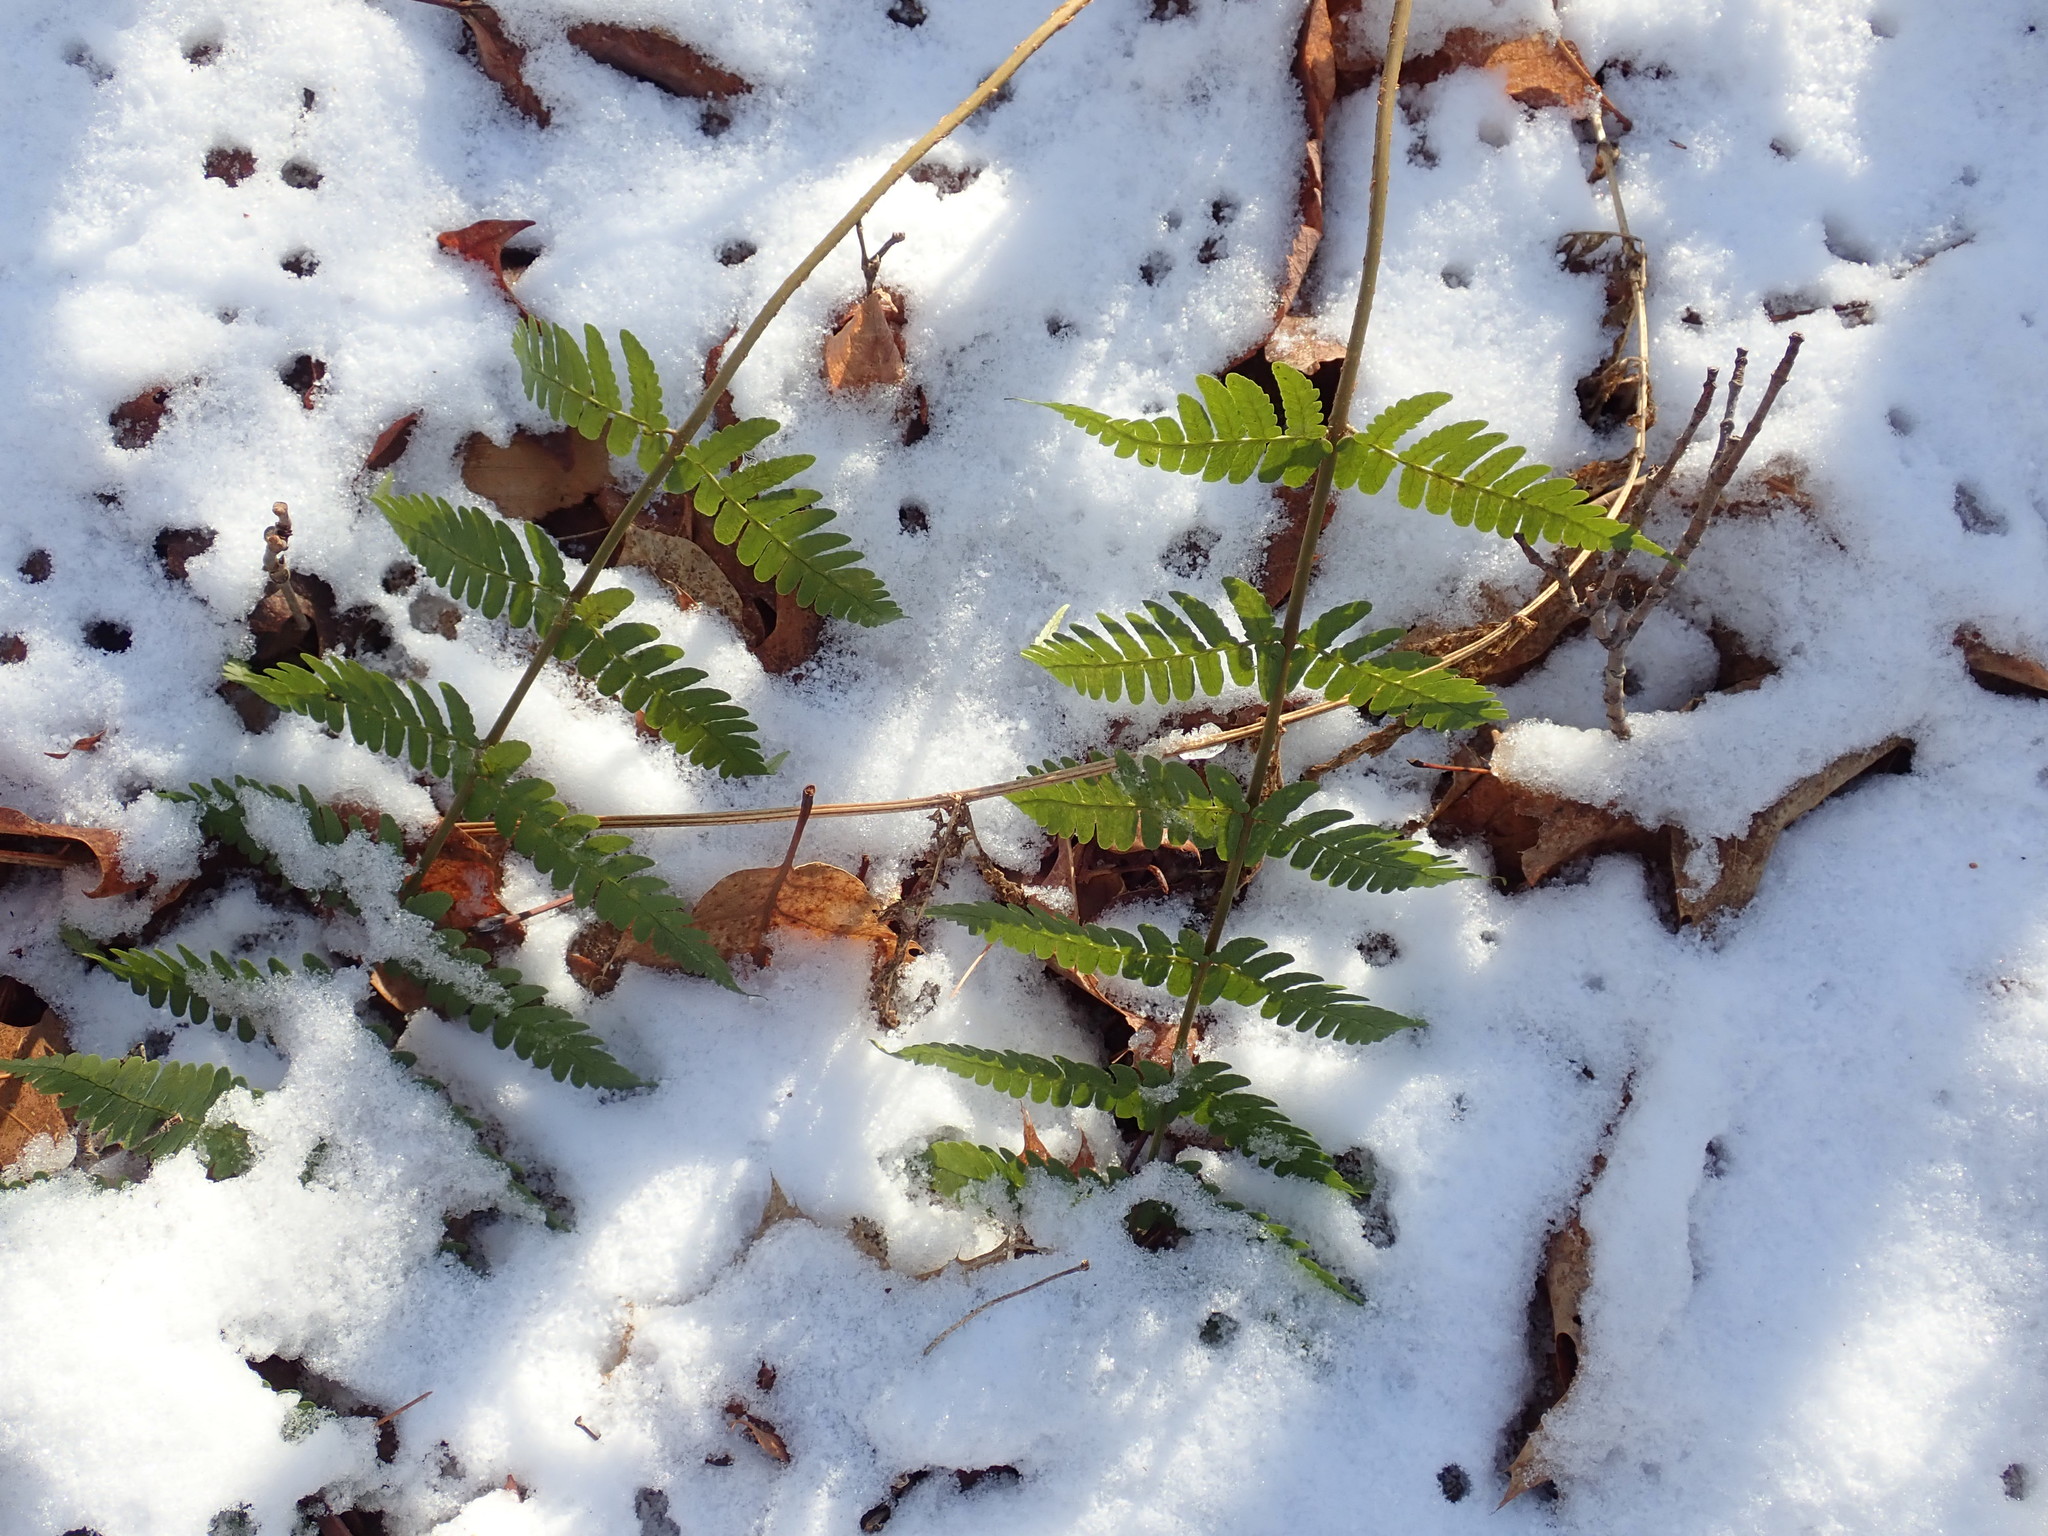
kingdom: Plantae
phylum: Tracheophyta
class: Polypodiopsida
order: Polypodiales
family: Dryopteridaceae
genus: Dryopteris
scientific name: Dryopteris marginalis
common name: Marginal wood fern
